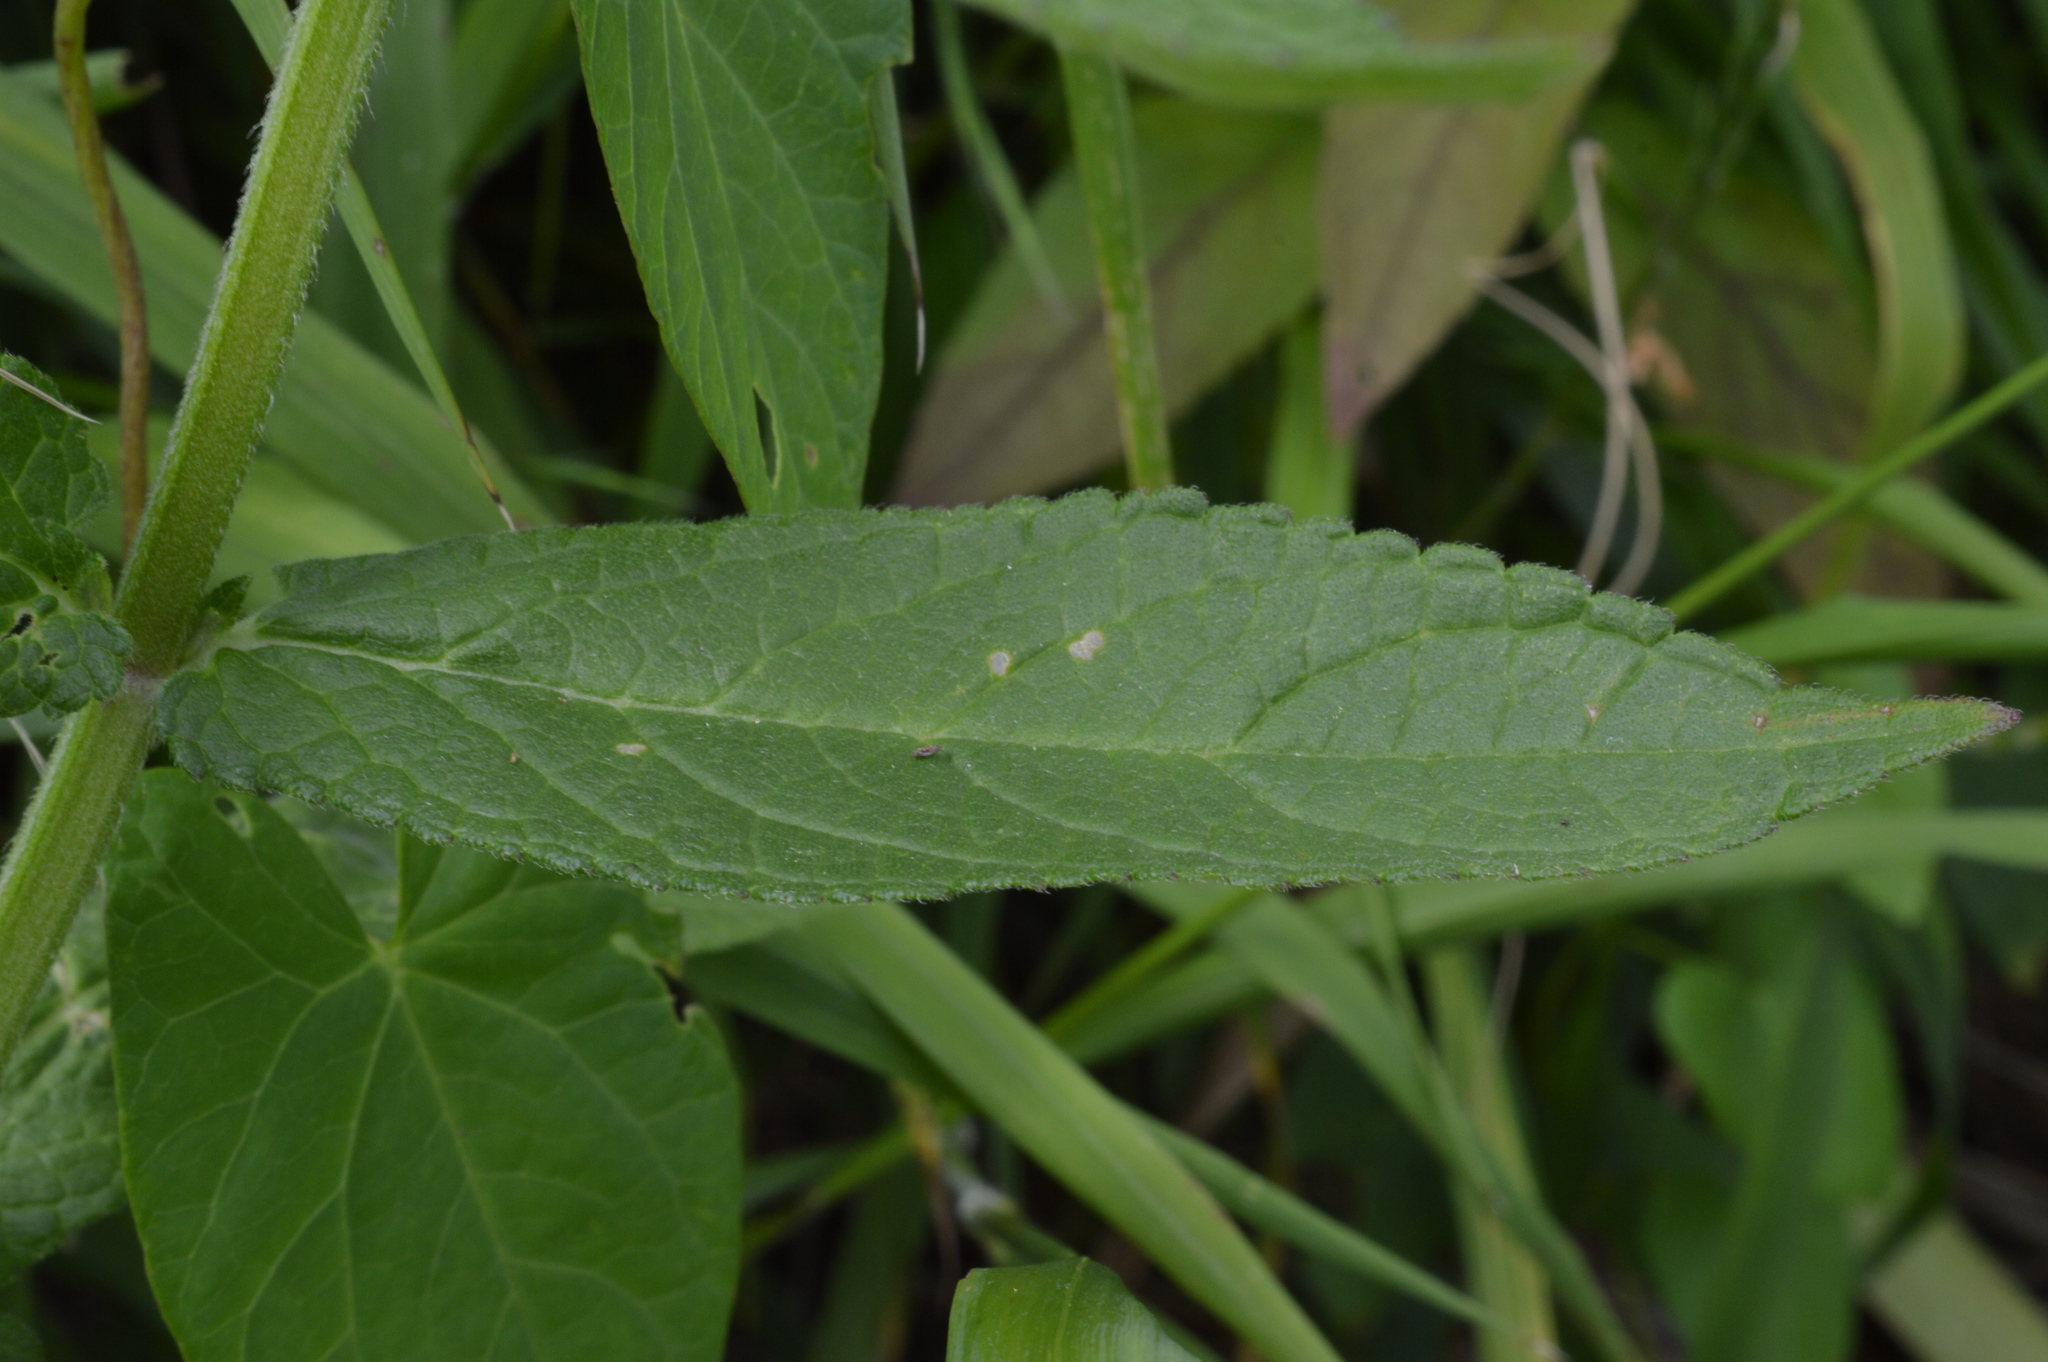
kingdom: Plantae
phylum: Tracheophyta
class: Magnoliopsida
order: Lamiales
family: Lamiaceae
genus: Stachys
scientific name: Stachys palustris
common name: Marsh woundwort
